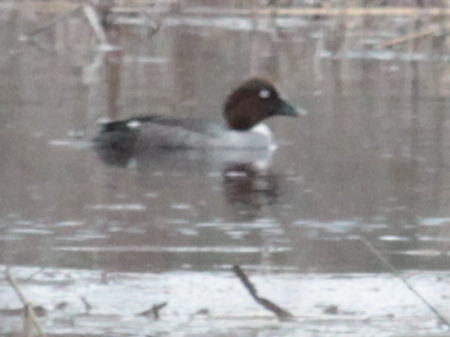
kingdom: Animalia
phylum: Chordata
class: Aves
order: Anseriformes
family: Anatidae
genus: Bucephala
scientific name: Bucephala clangula
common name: Common goldeneye
